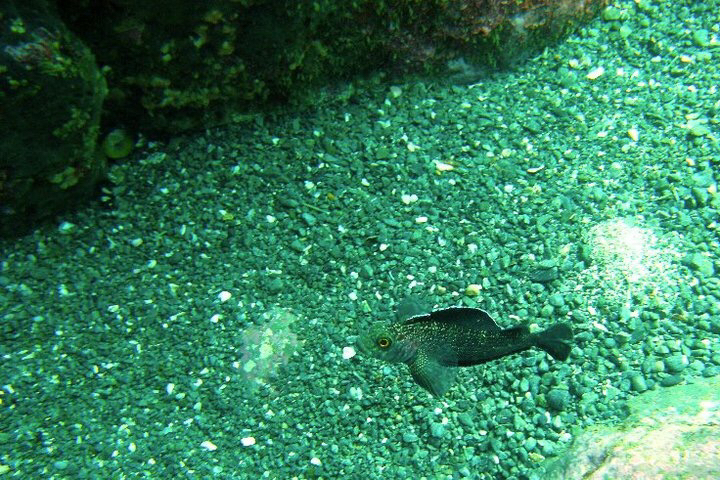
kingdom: Animalia
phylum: Chordata
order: Perciformes
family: Tripterygiidae
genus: Forsterygion
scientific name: Forsterygion varium
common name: Variable triplefin
